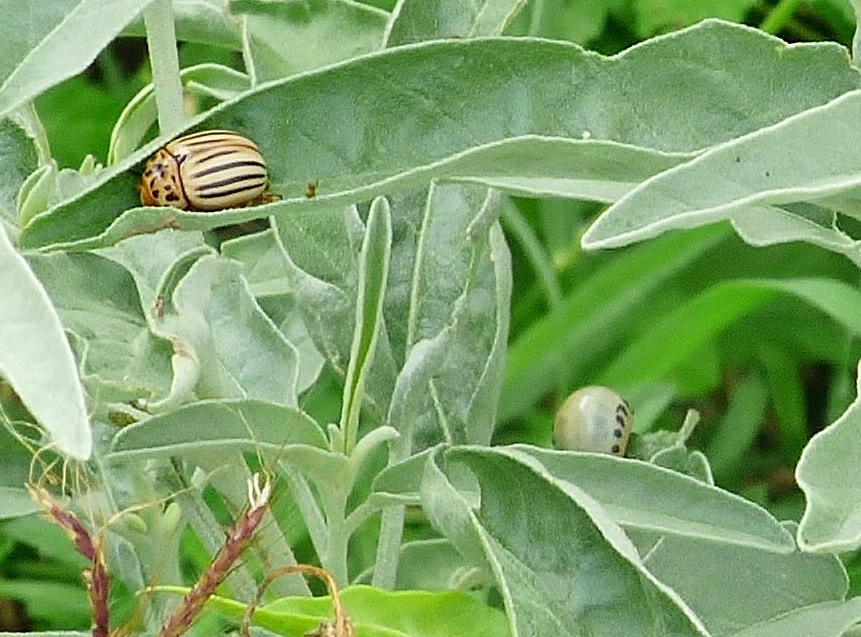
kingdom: Animalia
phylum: Arthropoda
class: Insecta
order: Coleoptera
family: Chrysomelidae
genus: Leptinotarsa
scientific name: Leptinotarsa texana
